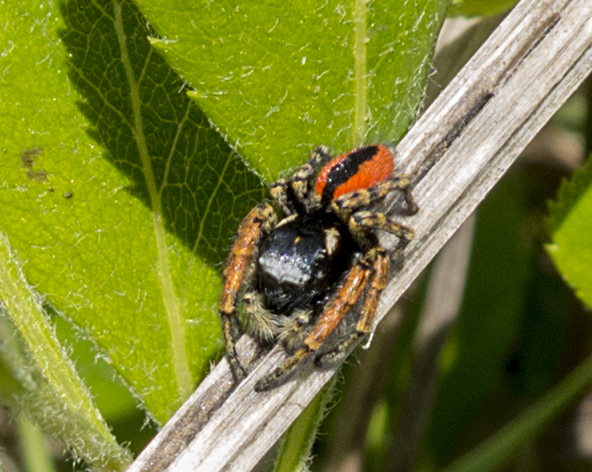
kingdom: Animalia
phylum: Arthropoda
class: Arachnida
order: Araneae
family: Salticidae
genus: Philaeus
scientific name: Philaeus chrysops
